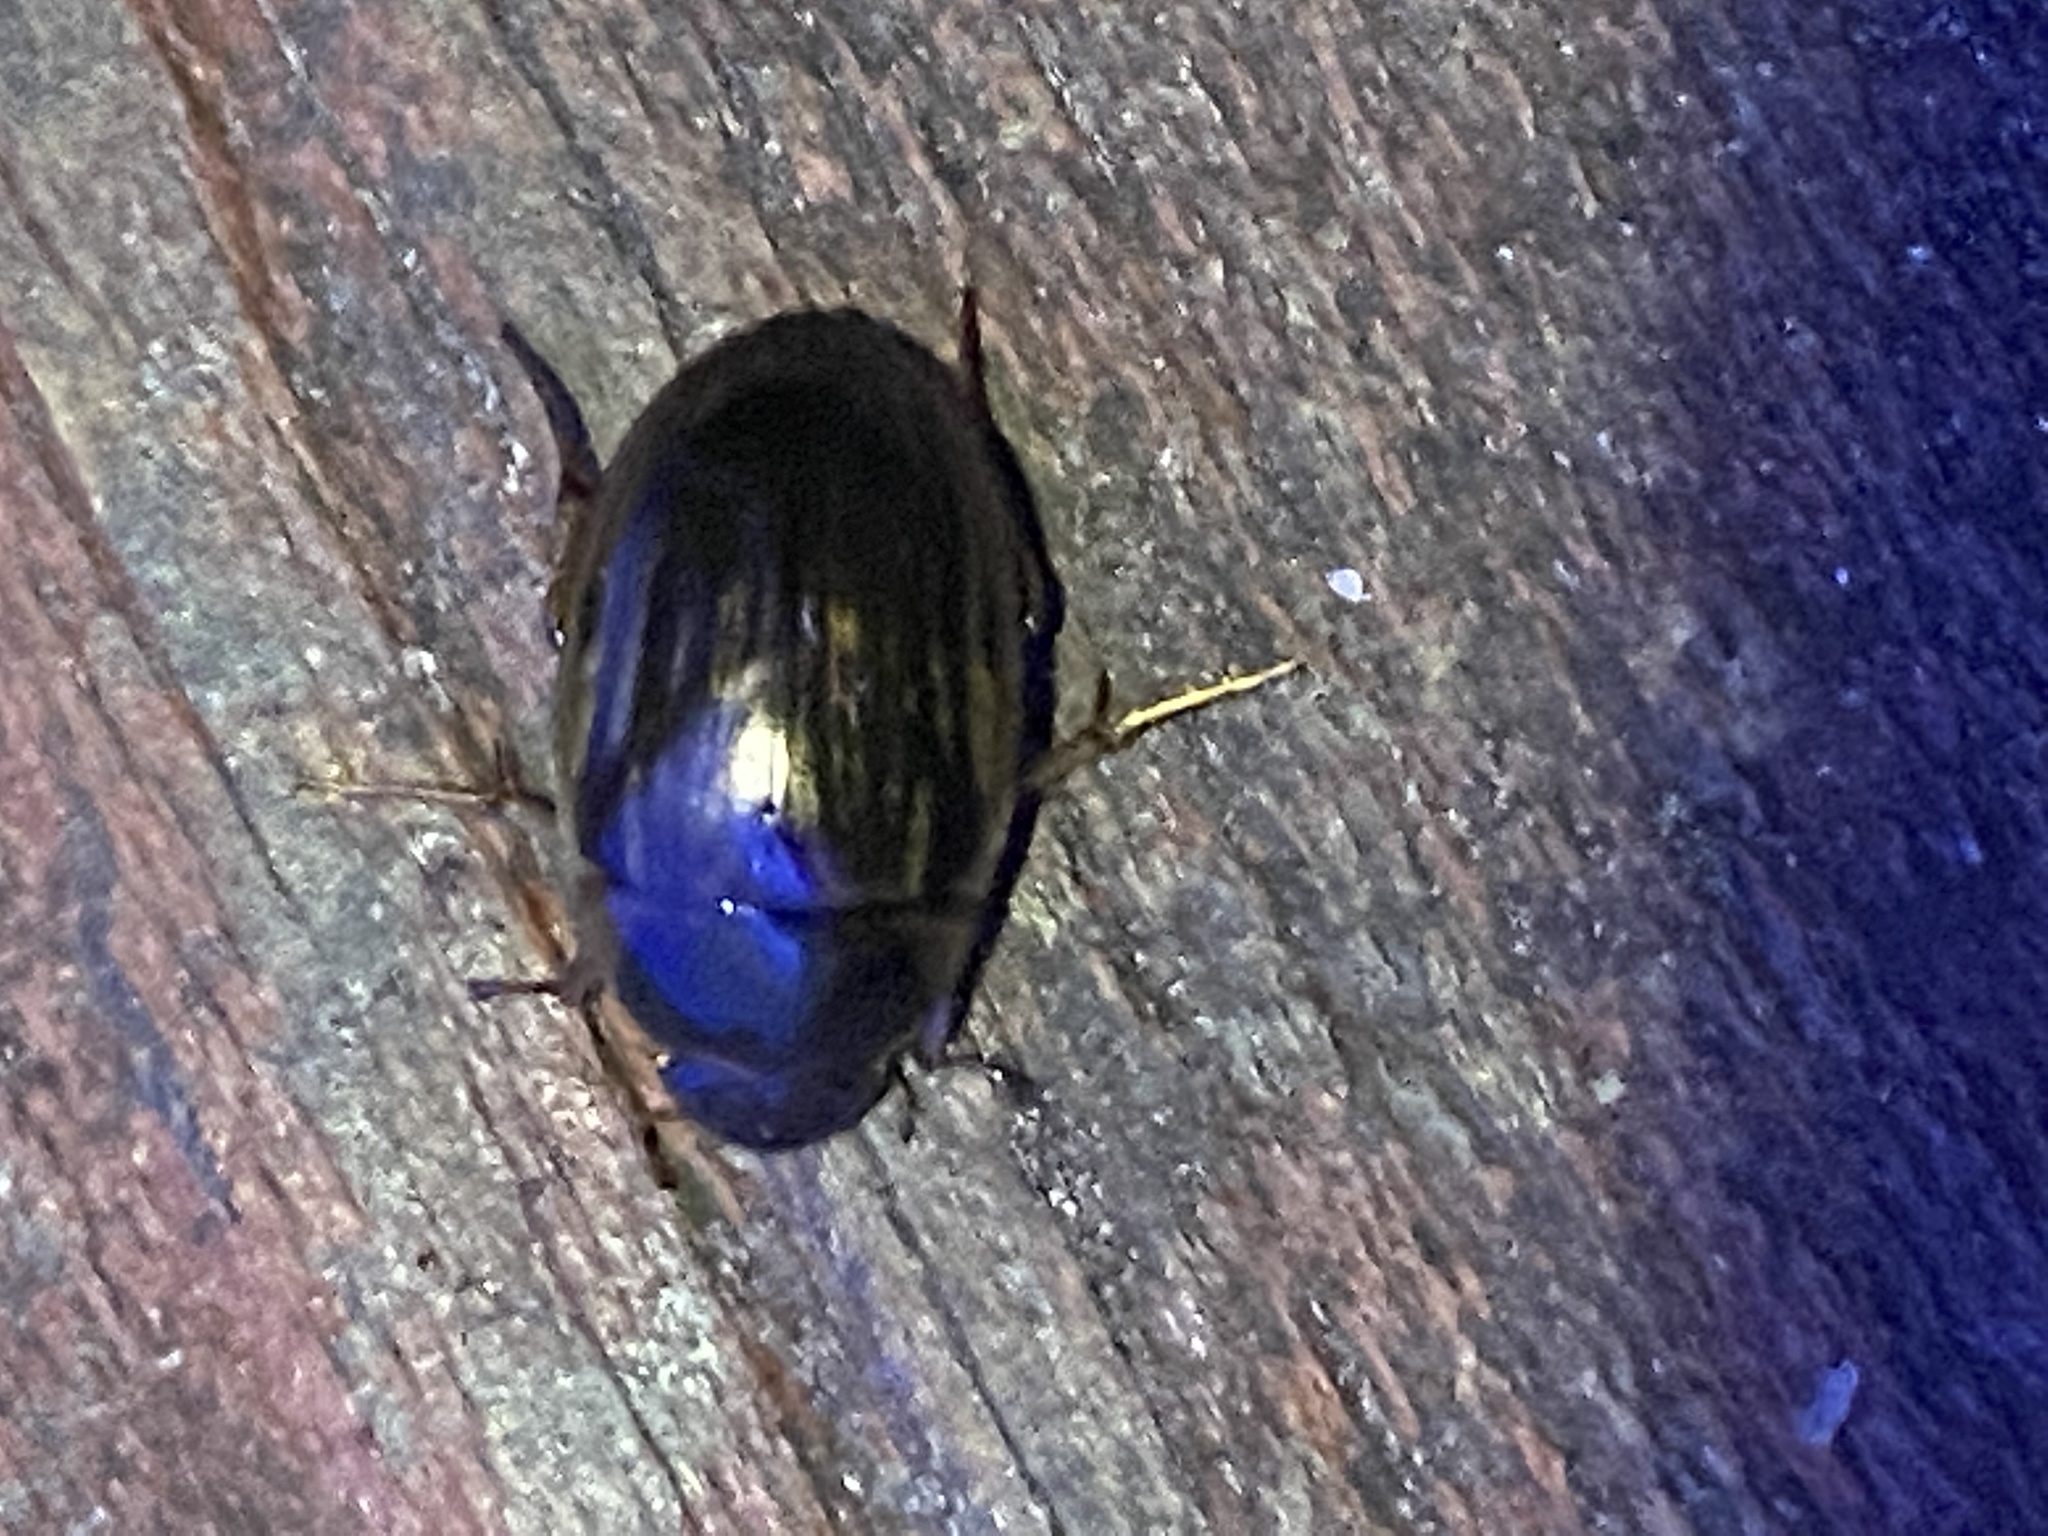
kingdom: Animalia
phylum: Arthropoda
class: Insecta
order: Coleoptera
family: Hydrophilidae
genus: Tropisternus
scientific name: Tropisternus collaris
